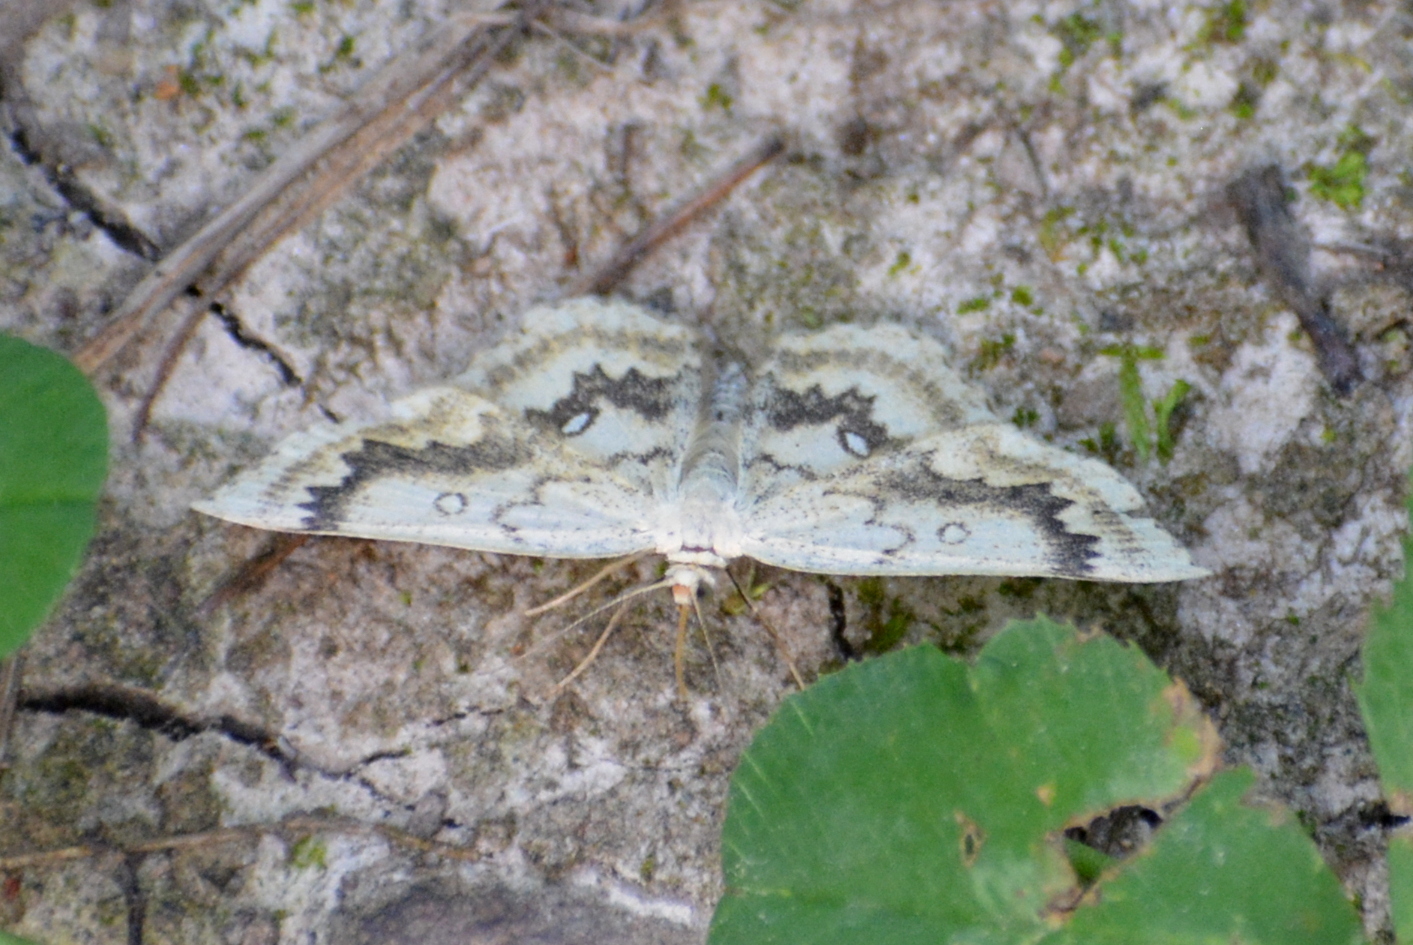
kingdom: Animalia
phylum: Arthropoda
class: Insecta
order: Lepidoptera
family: Geometridae
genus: Cyclophora
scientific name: Cyclophora annularia
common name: Mocha
